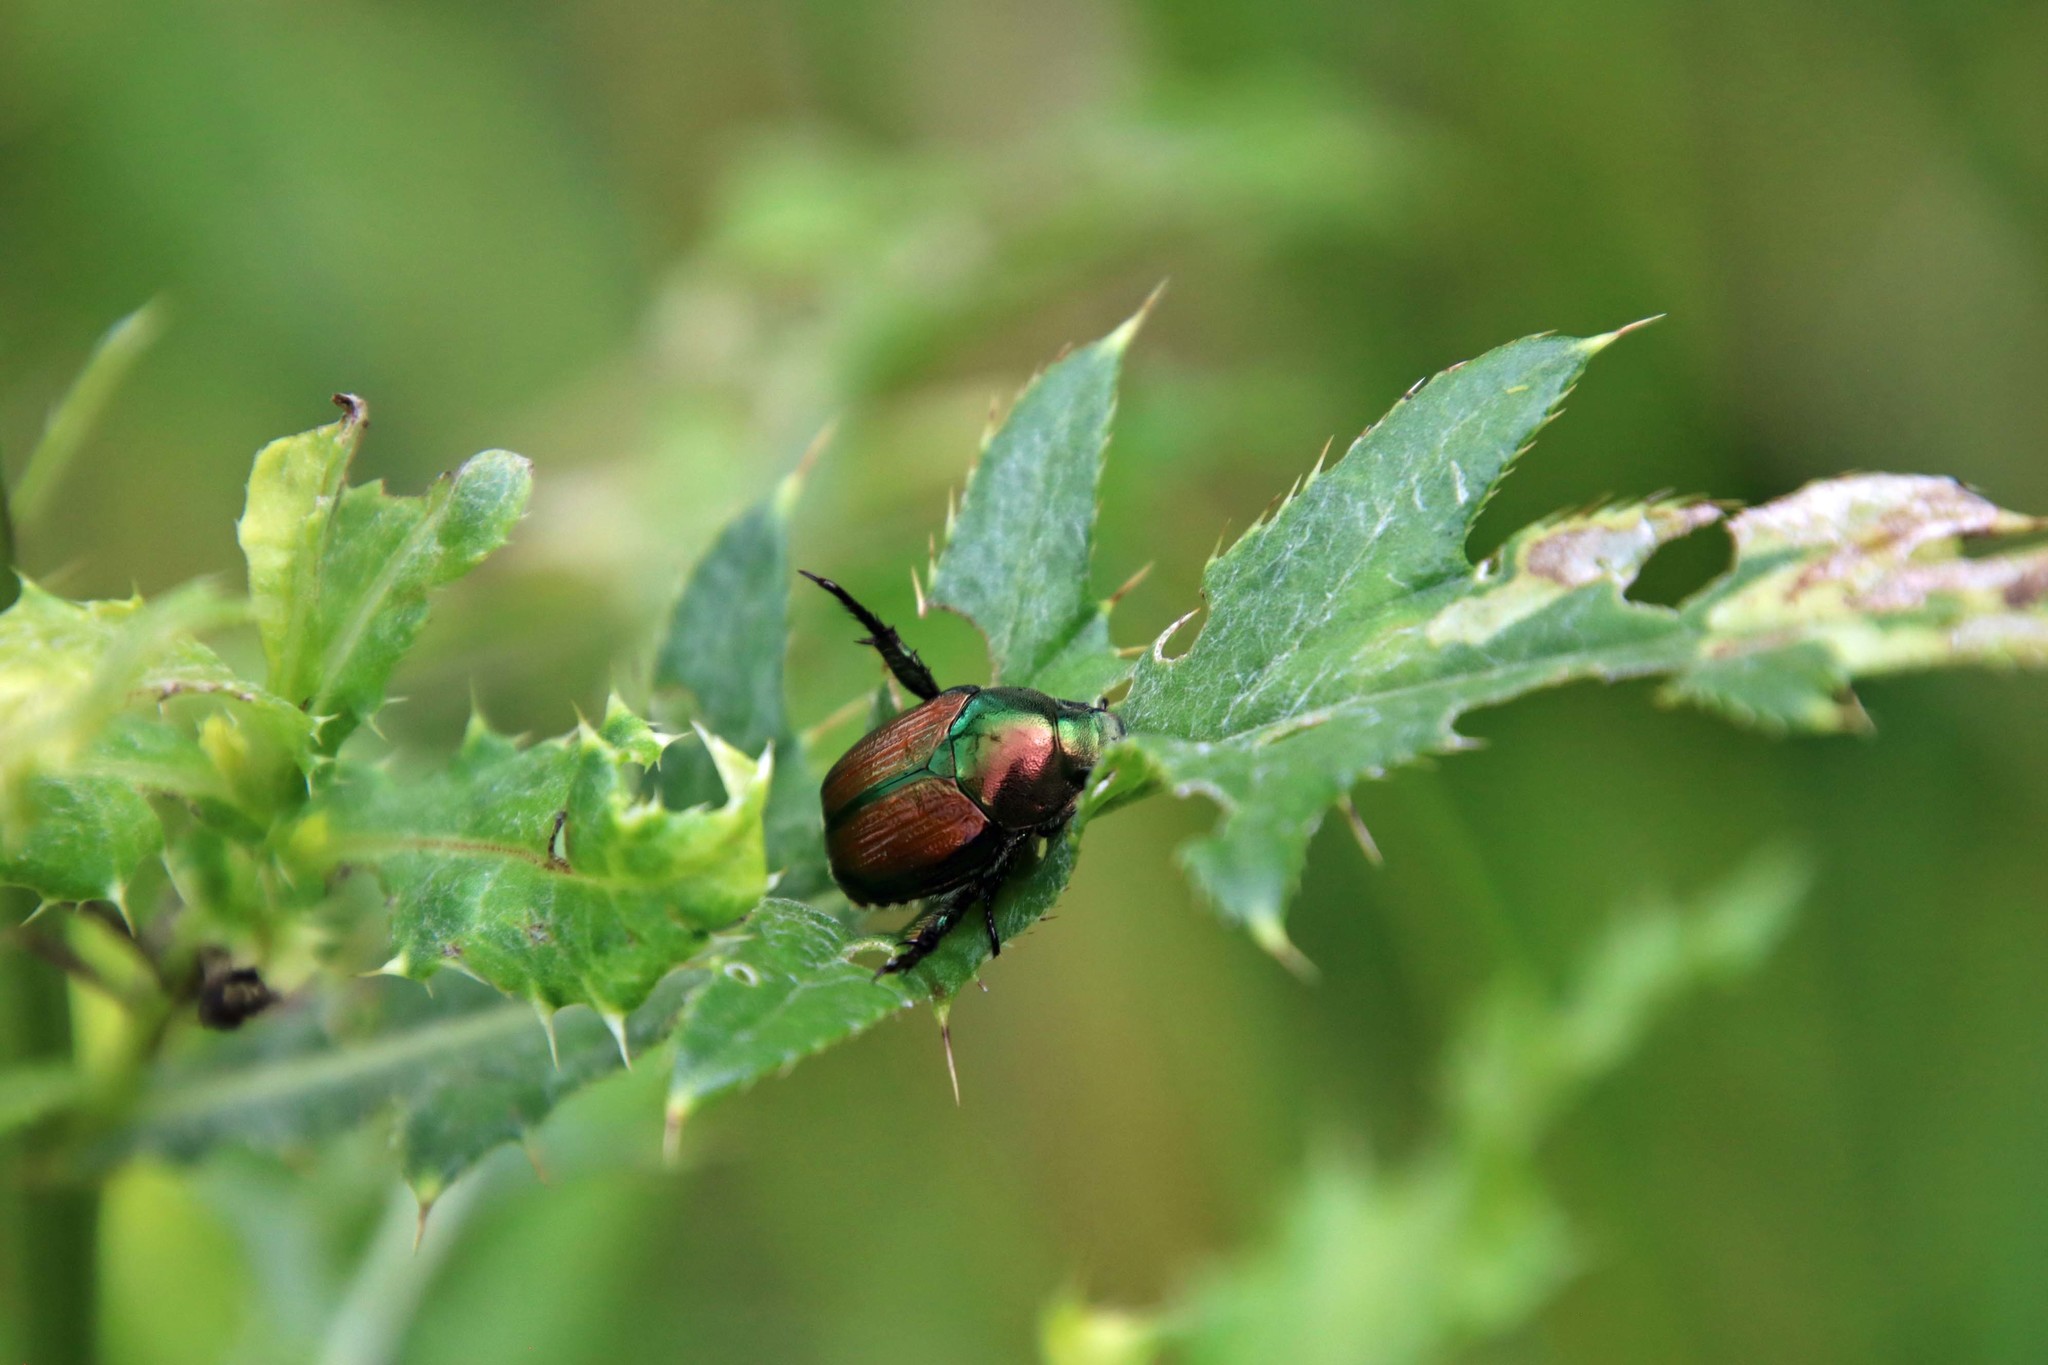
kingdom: Animalia
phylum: Arthropoda
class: Insecta
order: Coleoptera
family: Scarabaeidae
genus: Popillia
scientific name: Popillia japonica
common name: Japanese beetle
